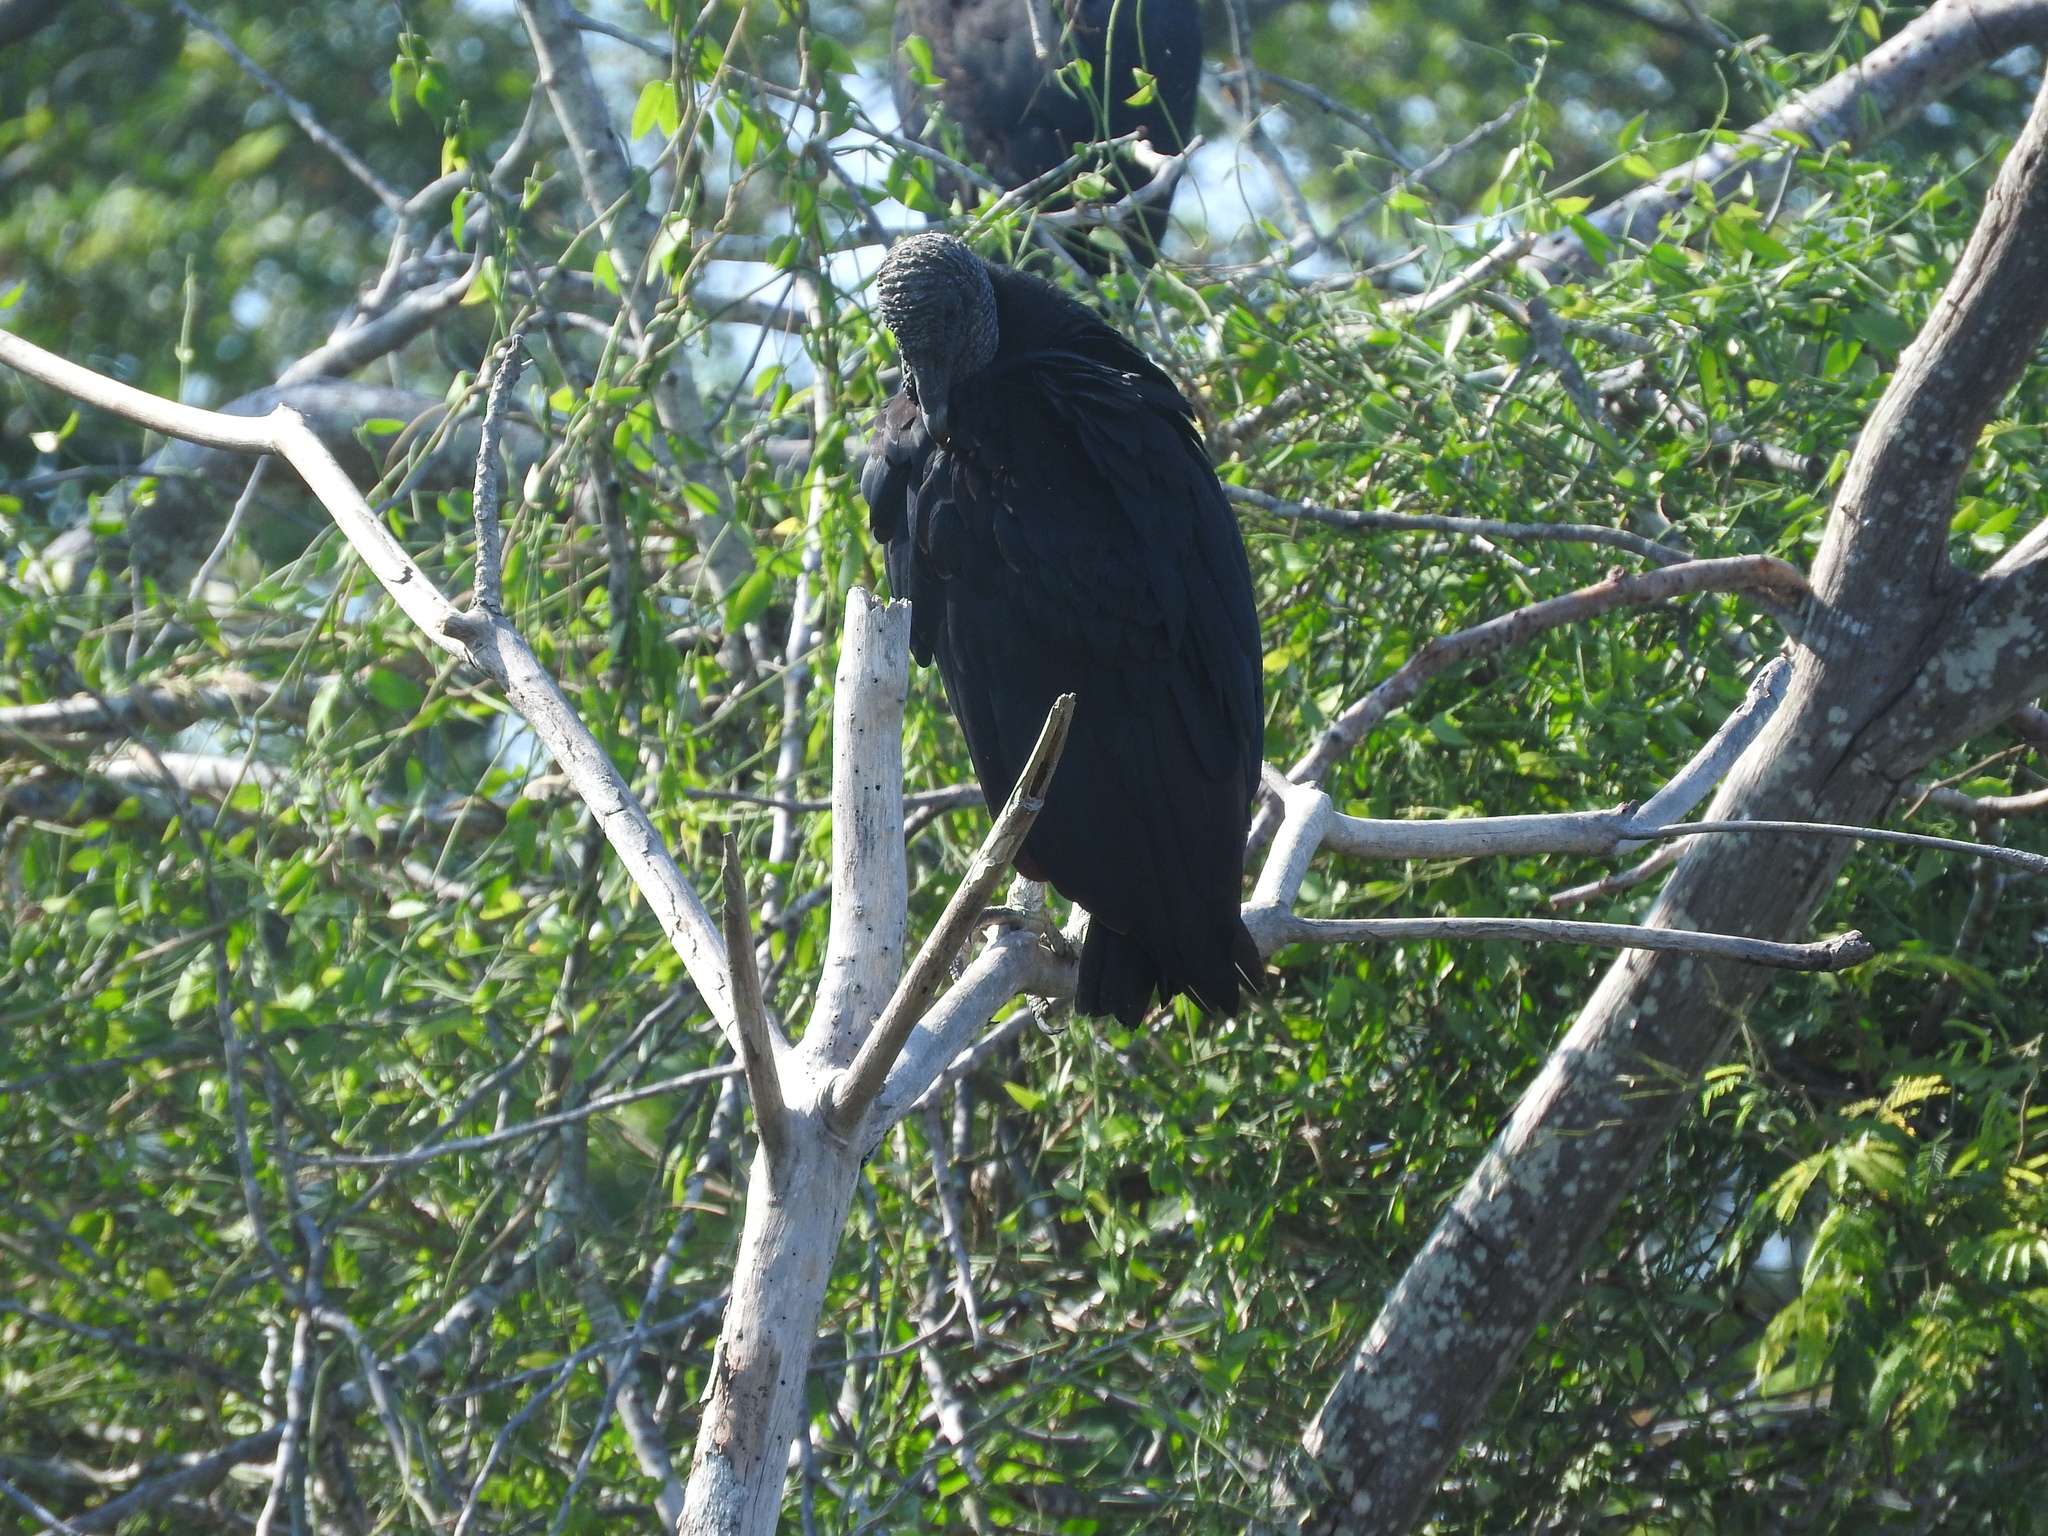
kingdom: Animalia
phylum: Chordata
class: Aves
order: Accipitriformes
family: Cathartidae
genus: Coragyps
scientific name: Coragyps atratus
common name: Black vulture
